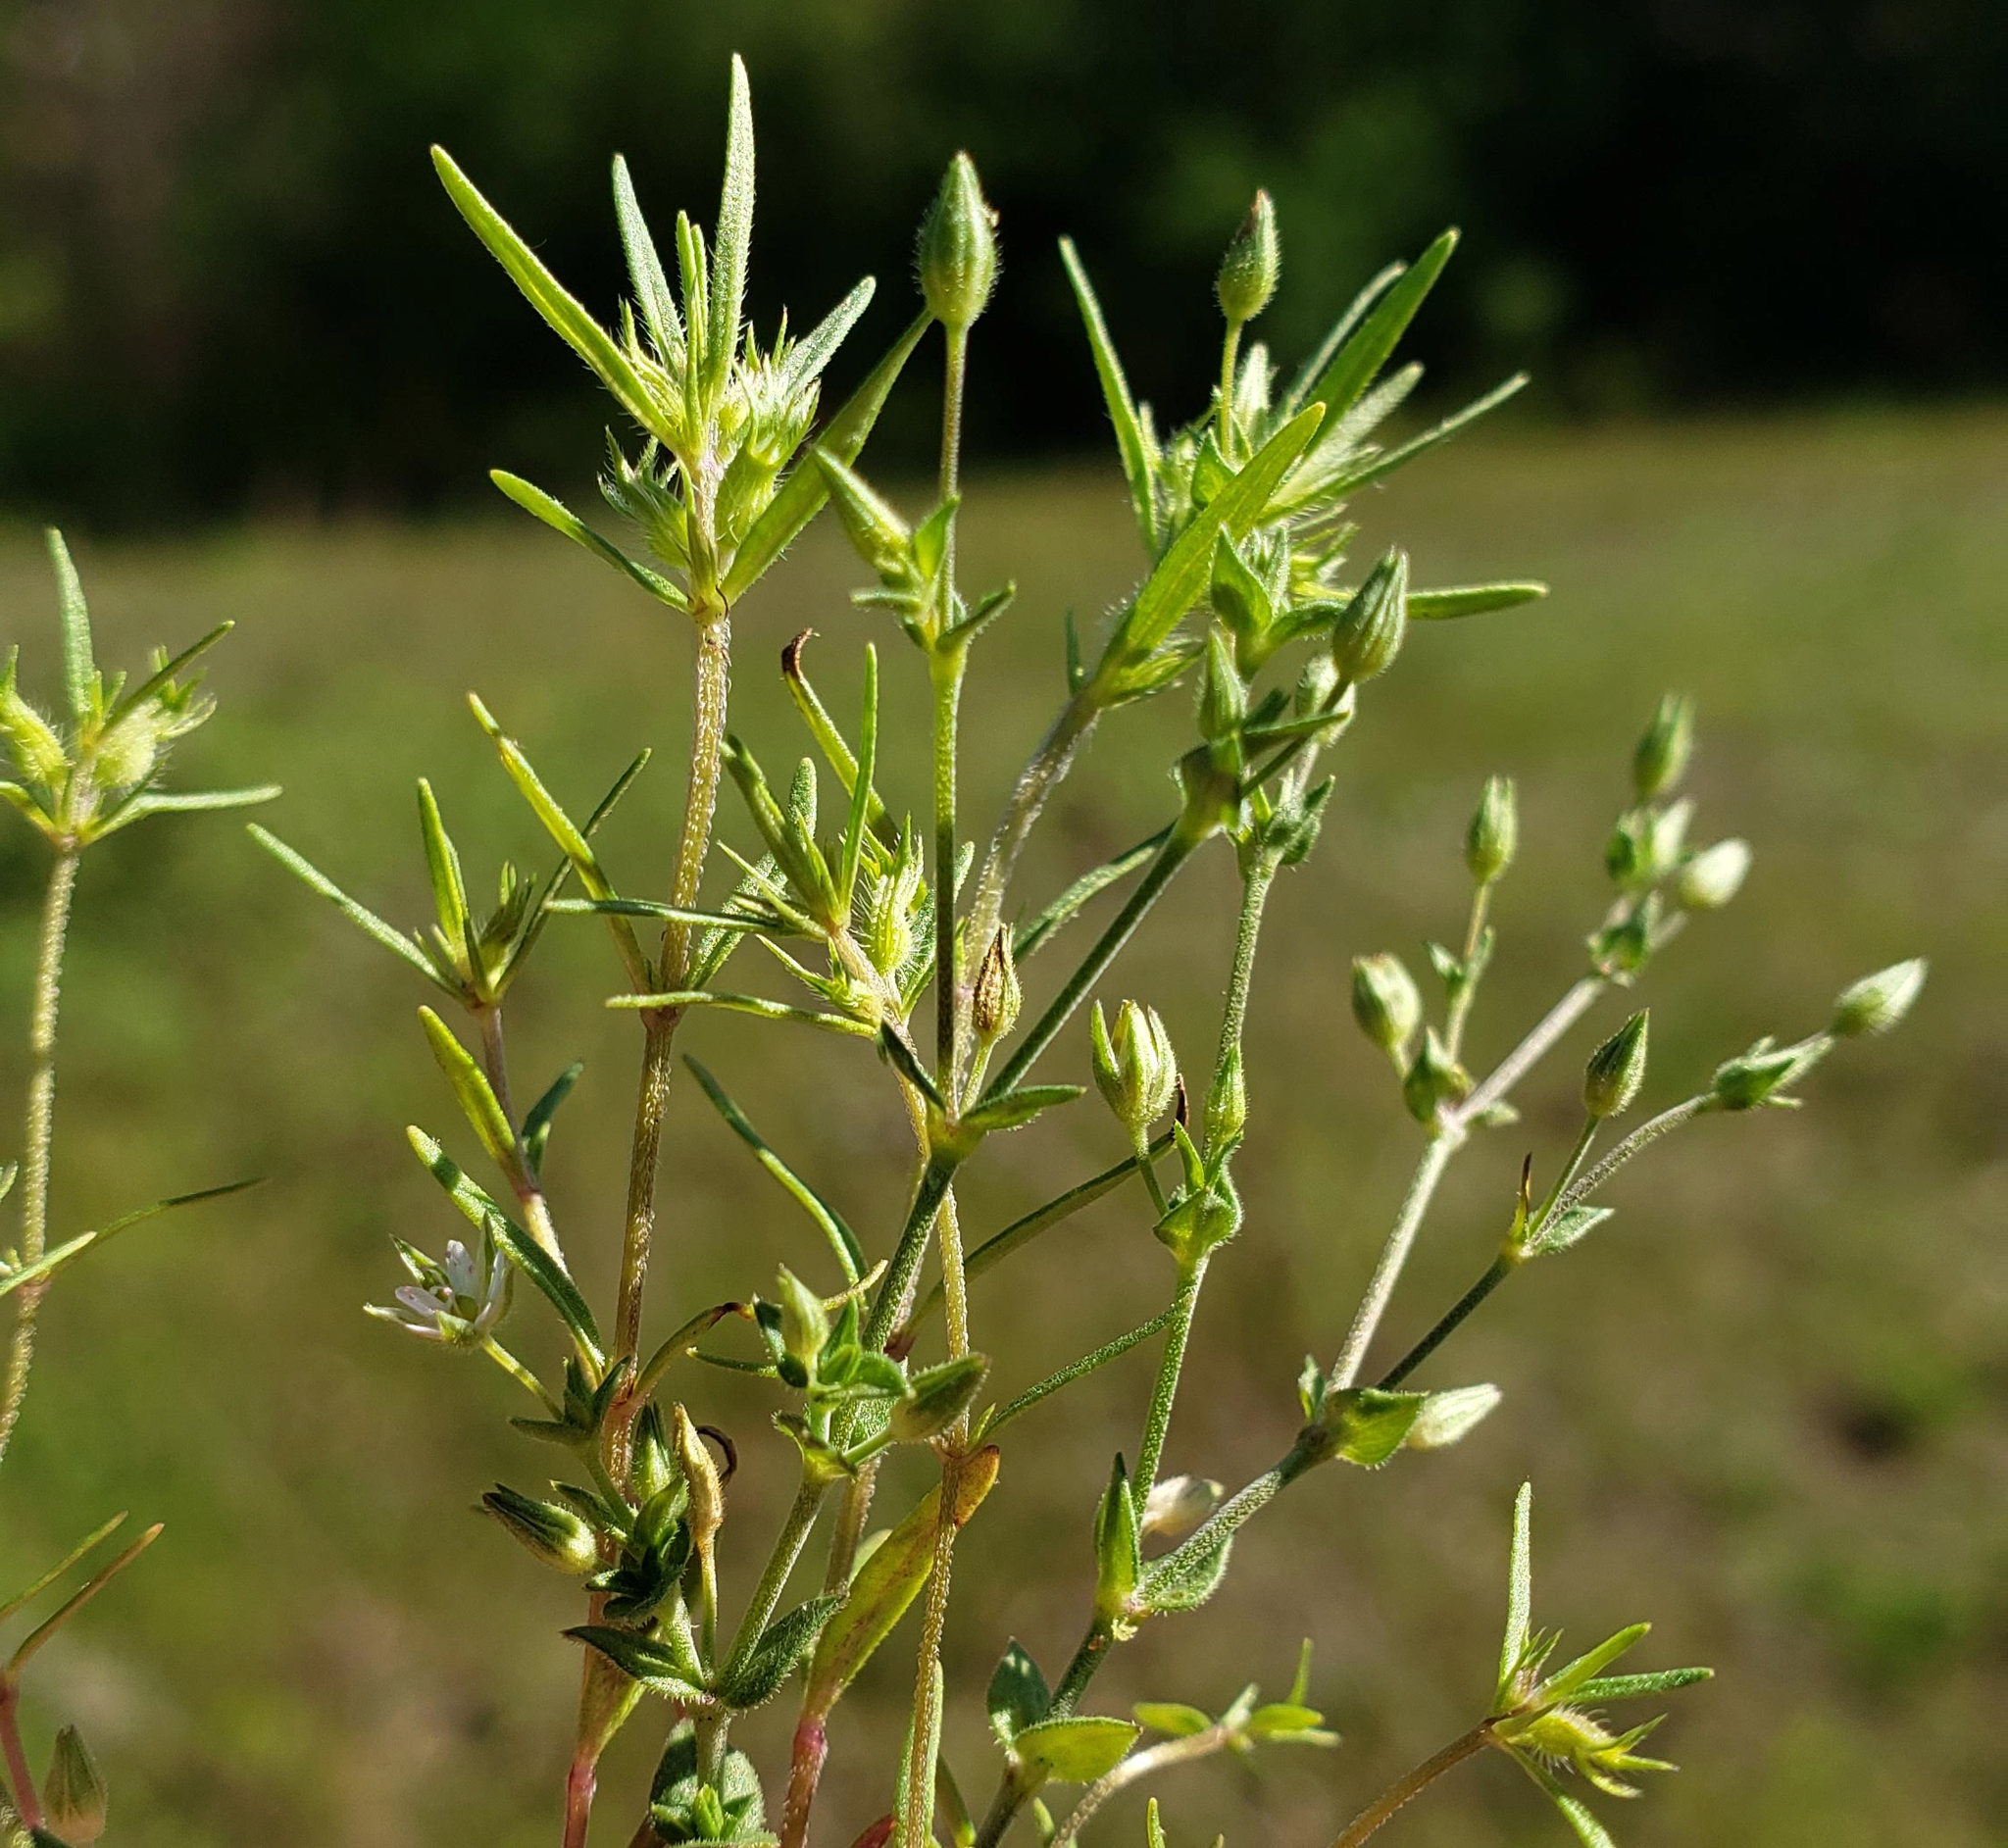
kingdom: Plantae
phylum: Tracheophyta
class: Magnoliopsida
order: Caryophyllales
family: Caryophyllaceae
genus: Arenaria
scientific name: Arenaria serpyllifolia
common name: Thyme-leaved sandwort
